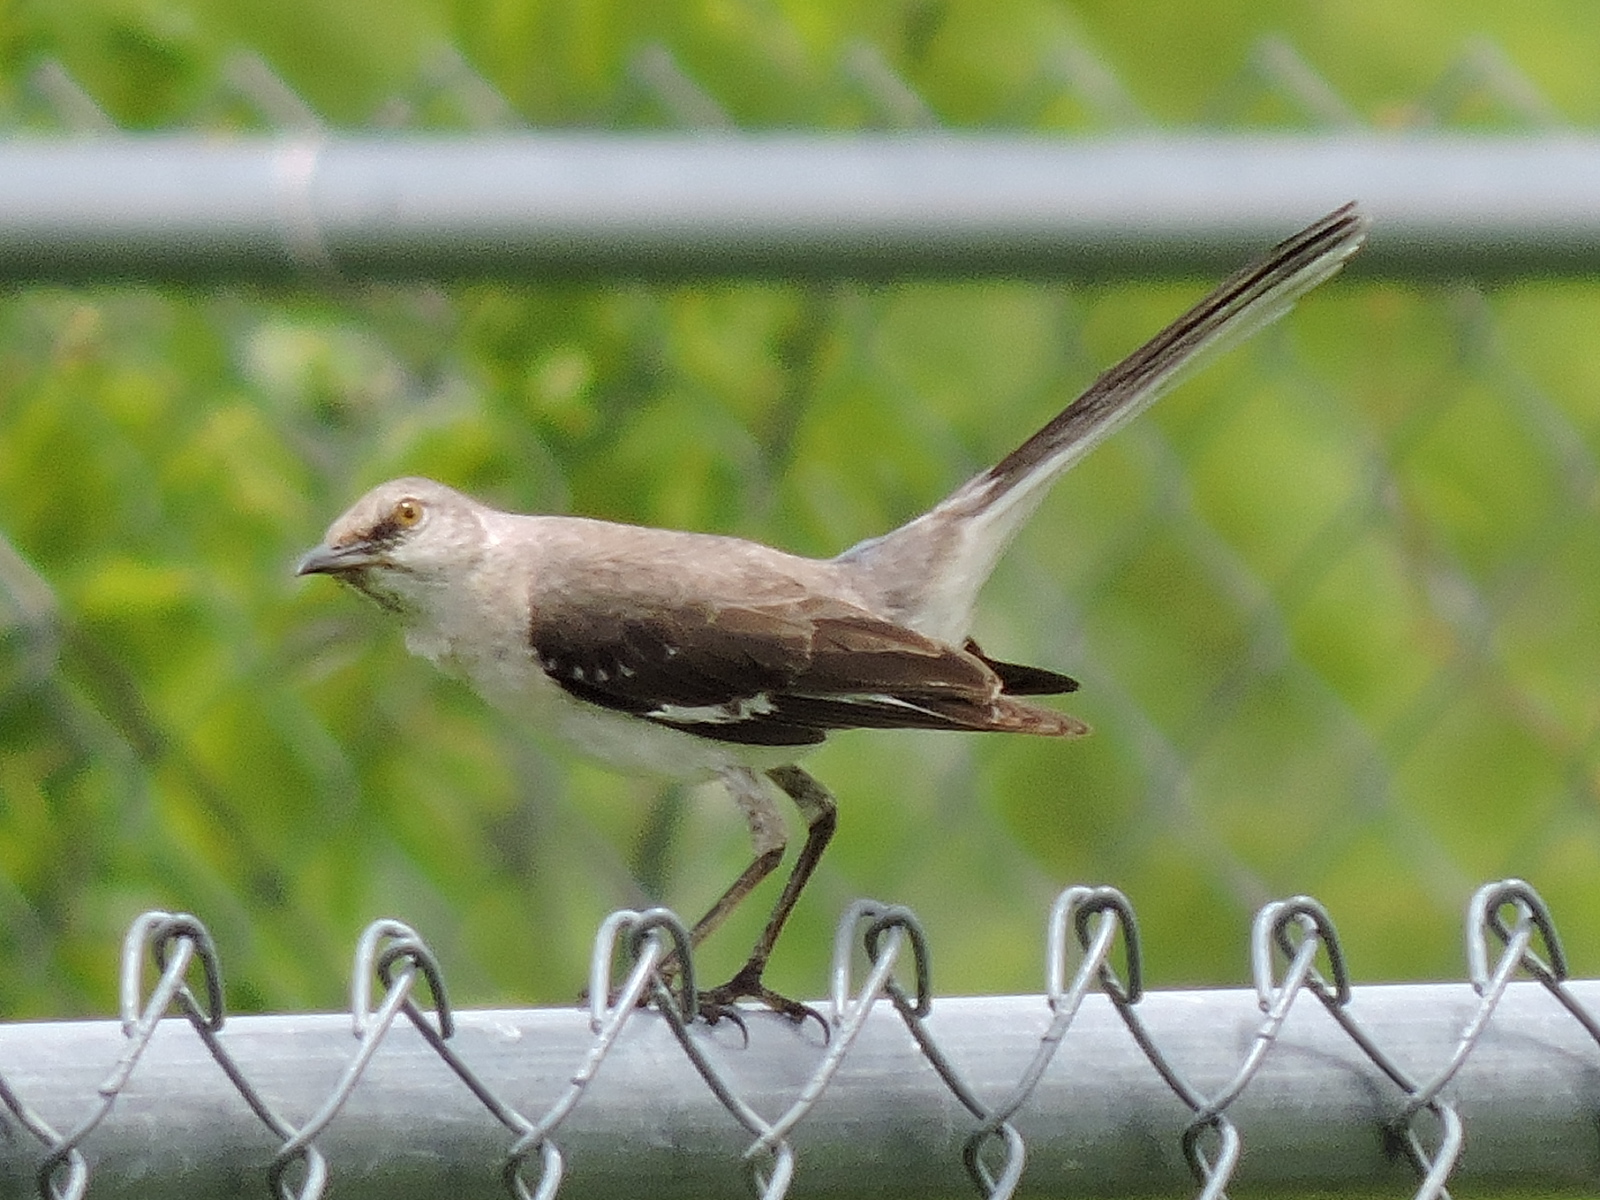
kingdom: Animalia
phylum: Chordata
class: Aves
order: Passeriformes
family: Mimidae
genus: Mimus
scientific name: Mimus polyglottos
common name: Northern mockingbird
